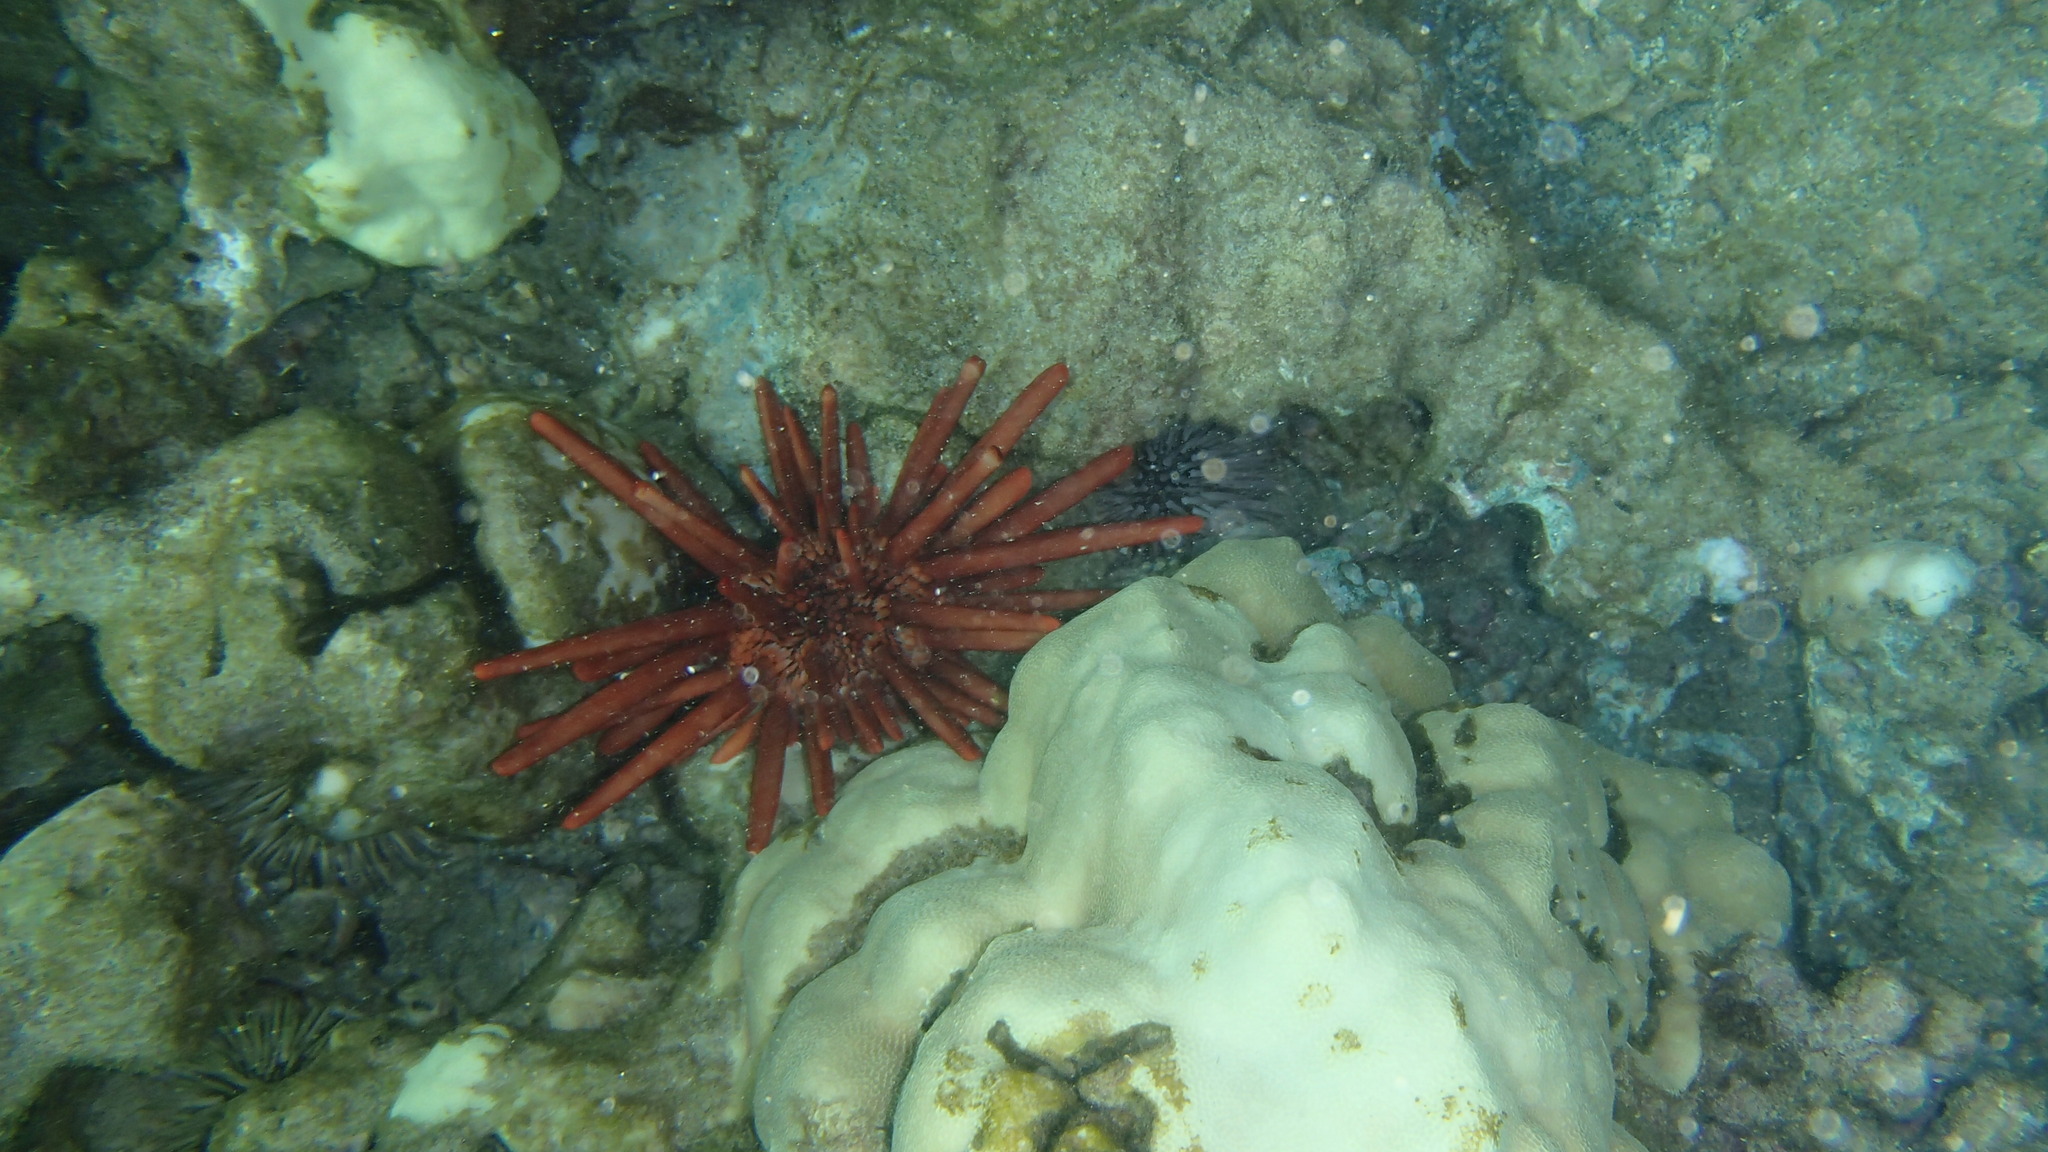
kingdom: Animalia
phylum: Echinodermata
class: Echinoidea
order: Camarodonta
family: Echinometridae
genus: Heterocentrotus
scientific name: Heterocentrotus mamillatus
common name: Slate pencil urchin
